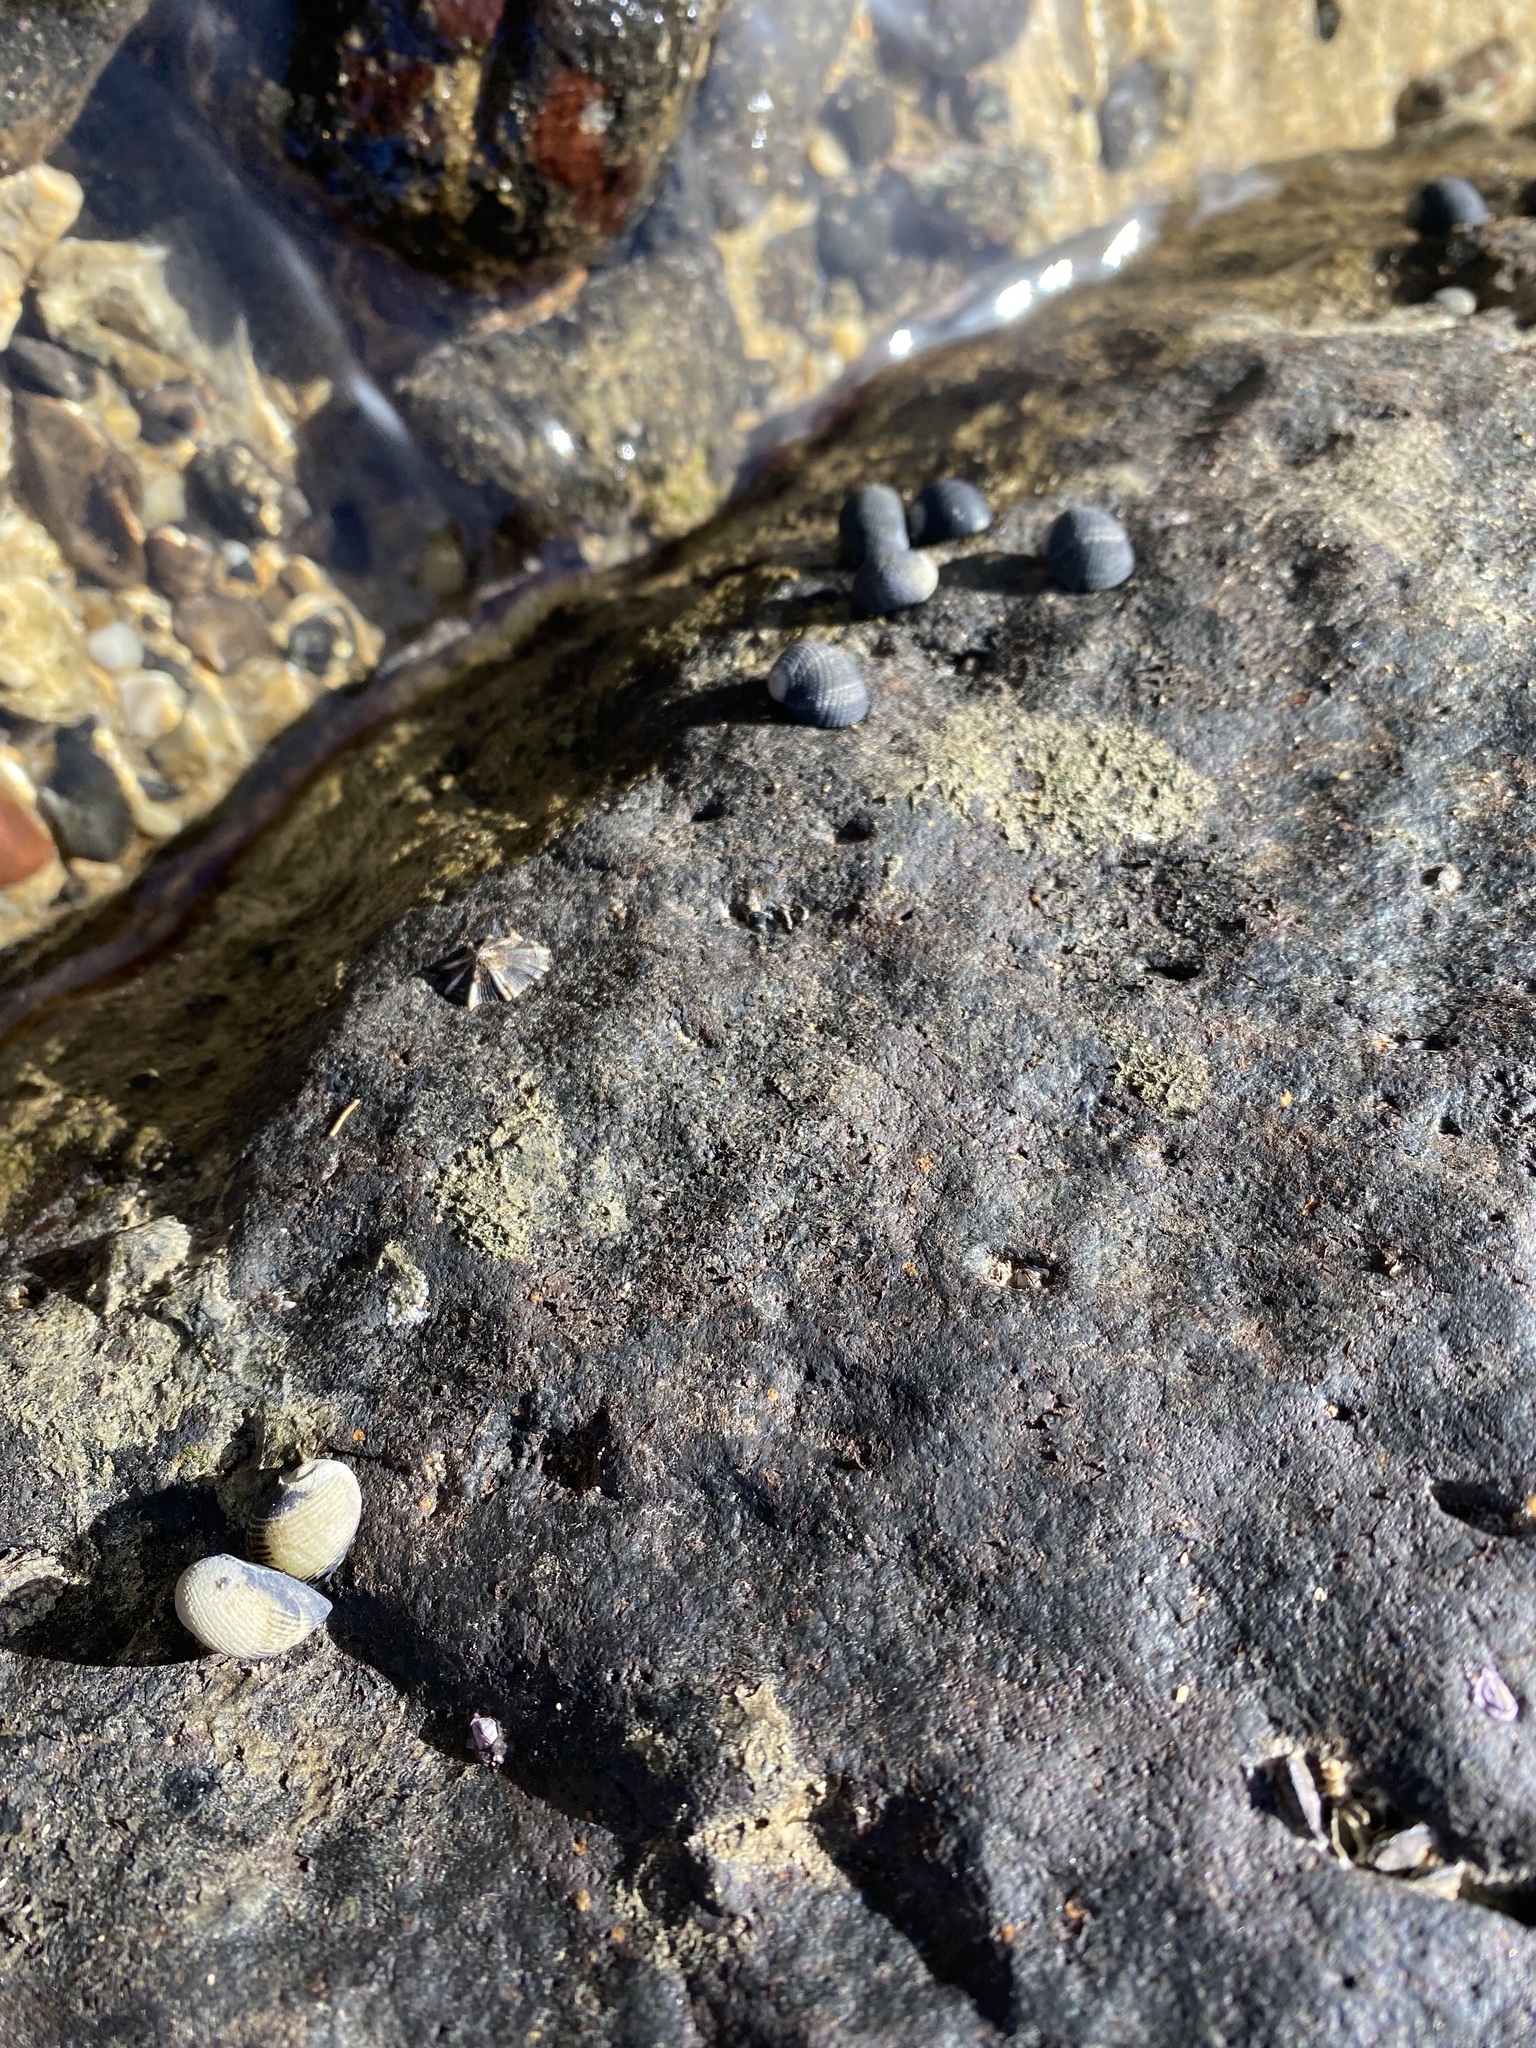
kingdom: Animalia
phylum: Mollusca
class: Gastropoda
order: Cycloneritida
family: Neritidae
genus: Nerita
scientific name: Nerita picea
